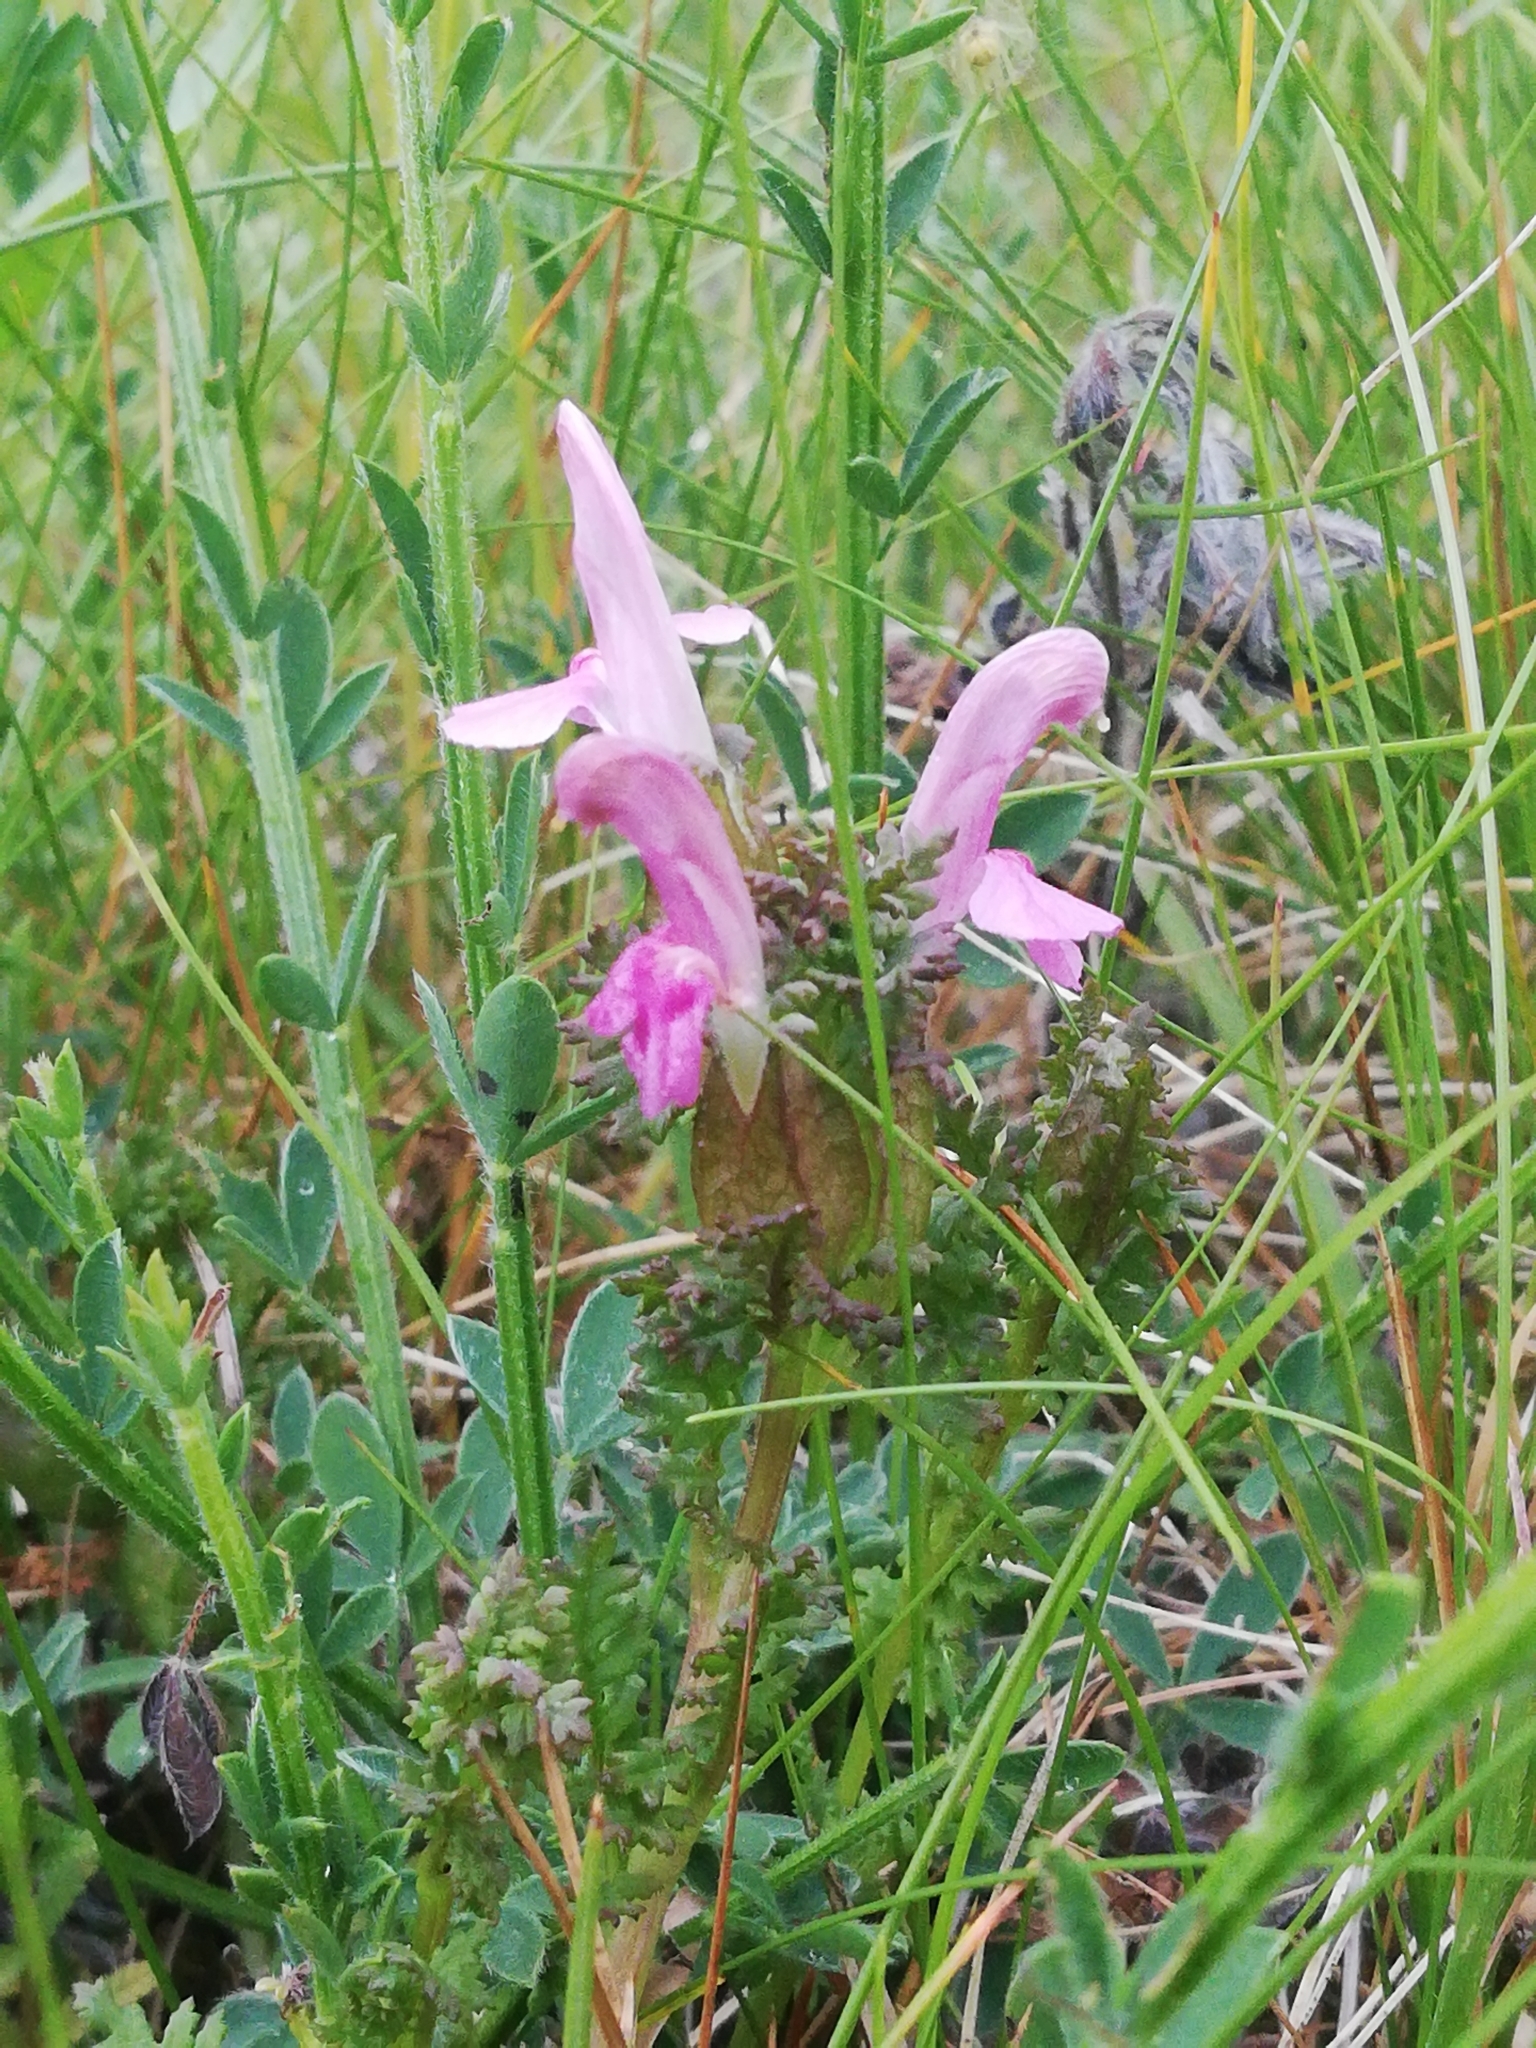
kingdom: Plantae
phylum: Tracheophyta
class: Magnoliopsida
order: Lamiales
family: Orobanchaceae
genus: Pedicularis
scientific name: Pedicularis sylvatica
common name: Lousewort
